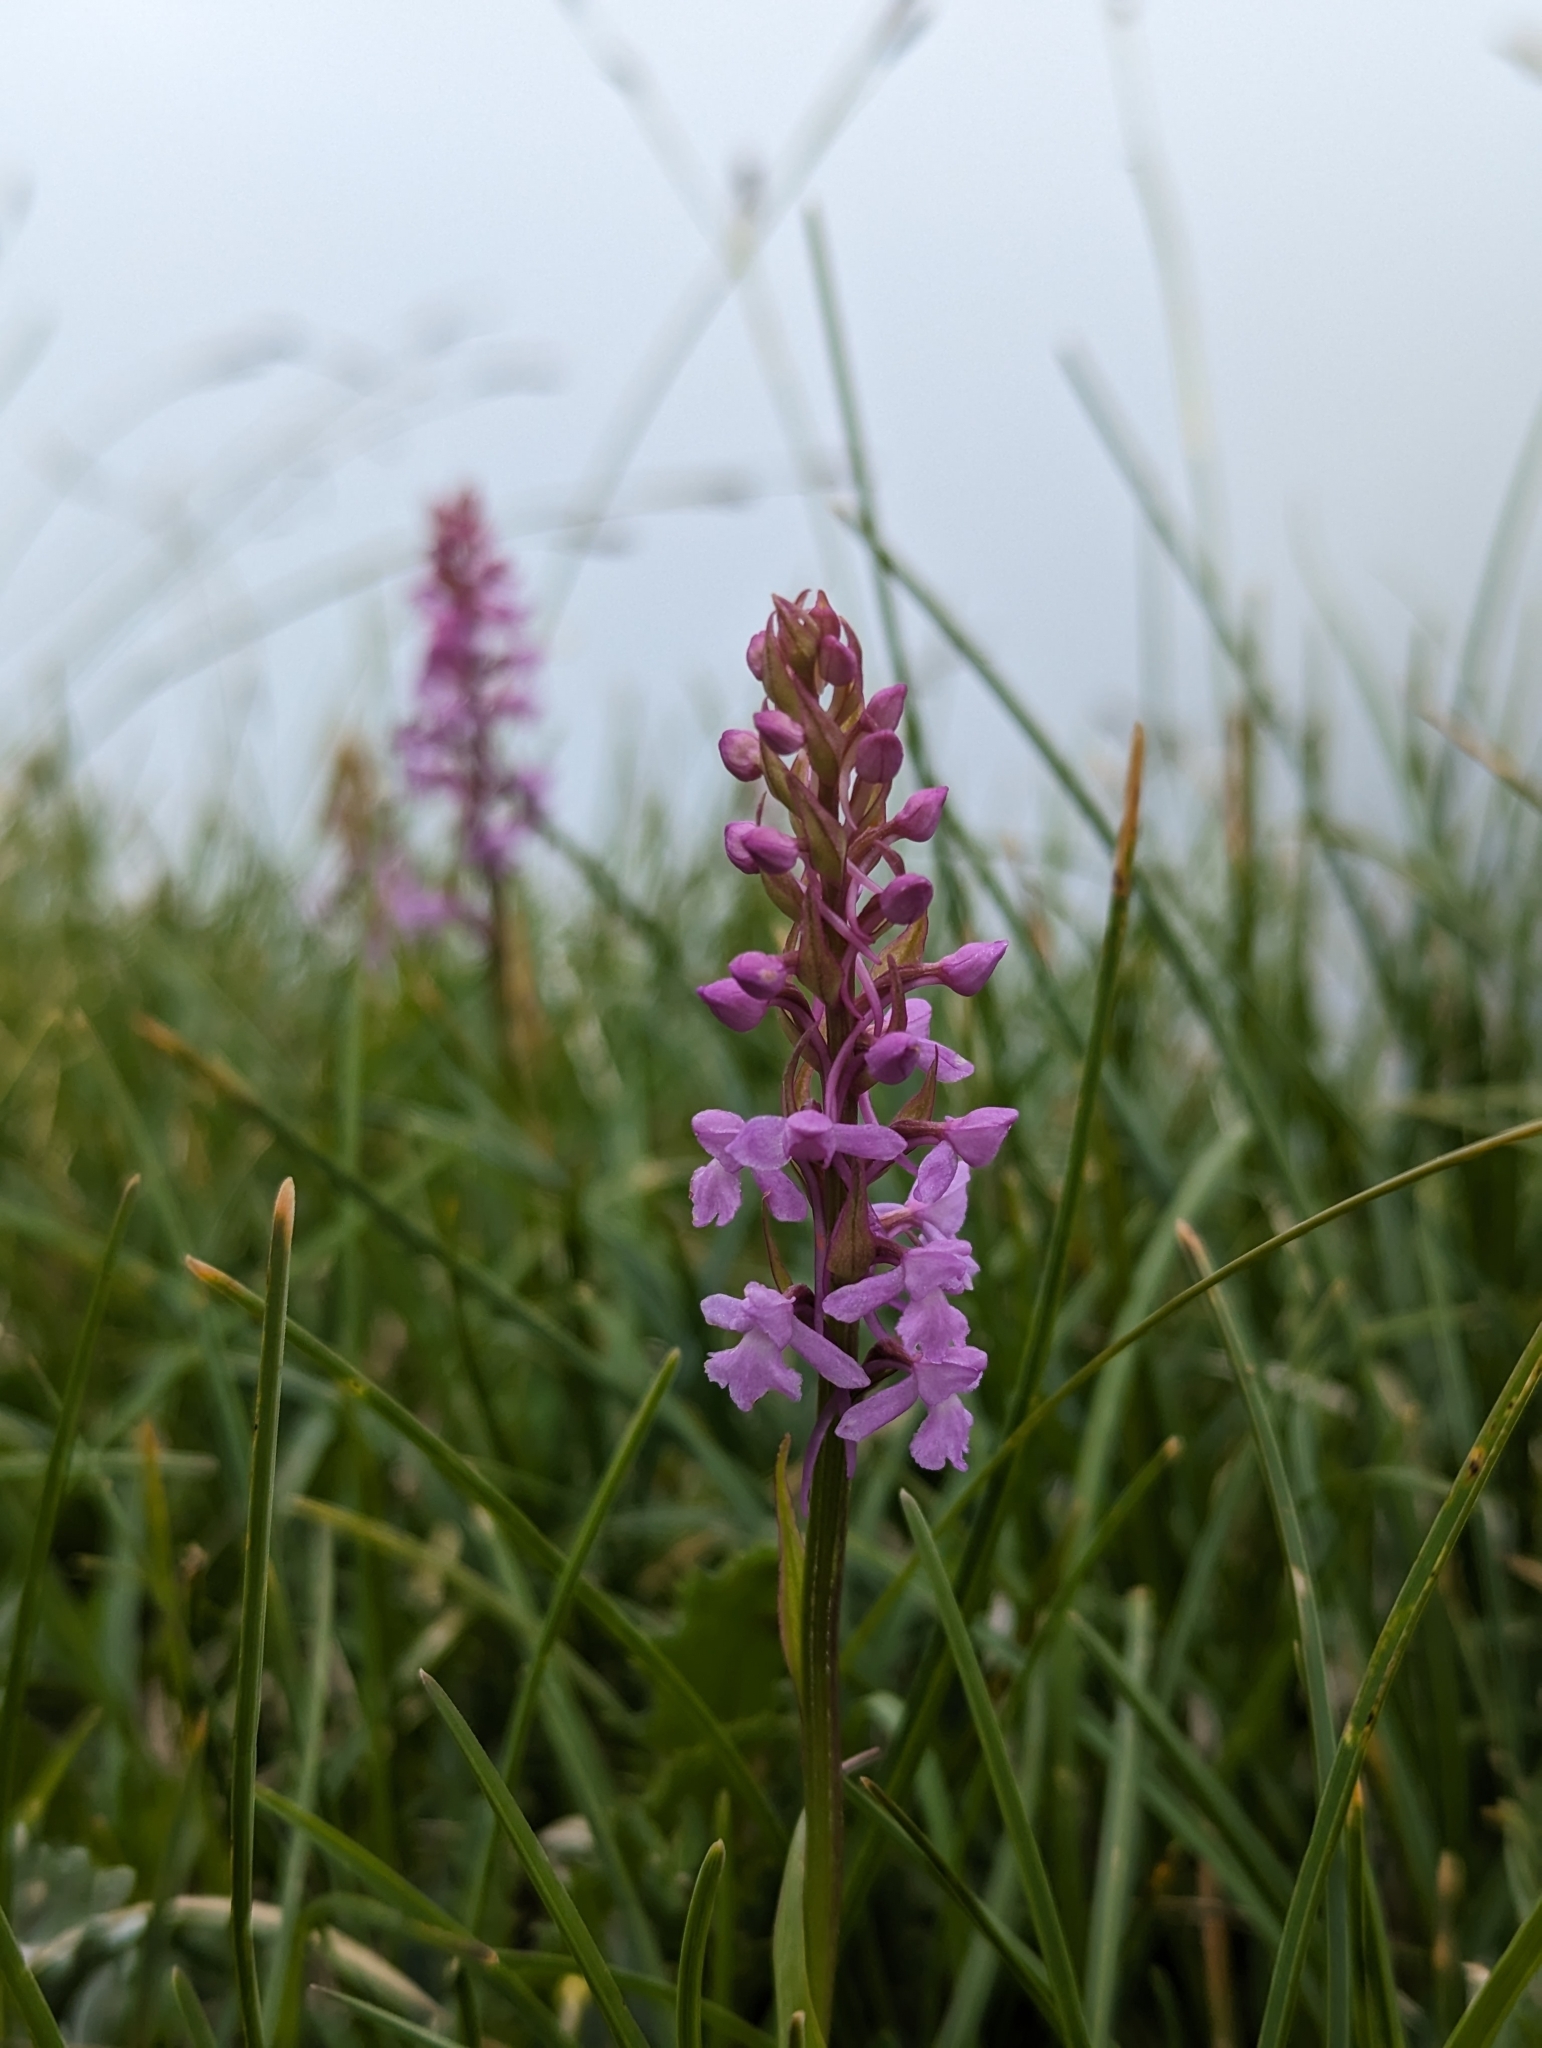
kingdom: Plantae
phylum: Tracheophyta
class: Liliopsida
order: Asparagales
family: Orchidaceae
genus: Gymnadenia
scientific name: Gymnadenia conopsea
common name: Fragrant orchid
